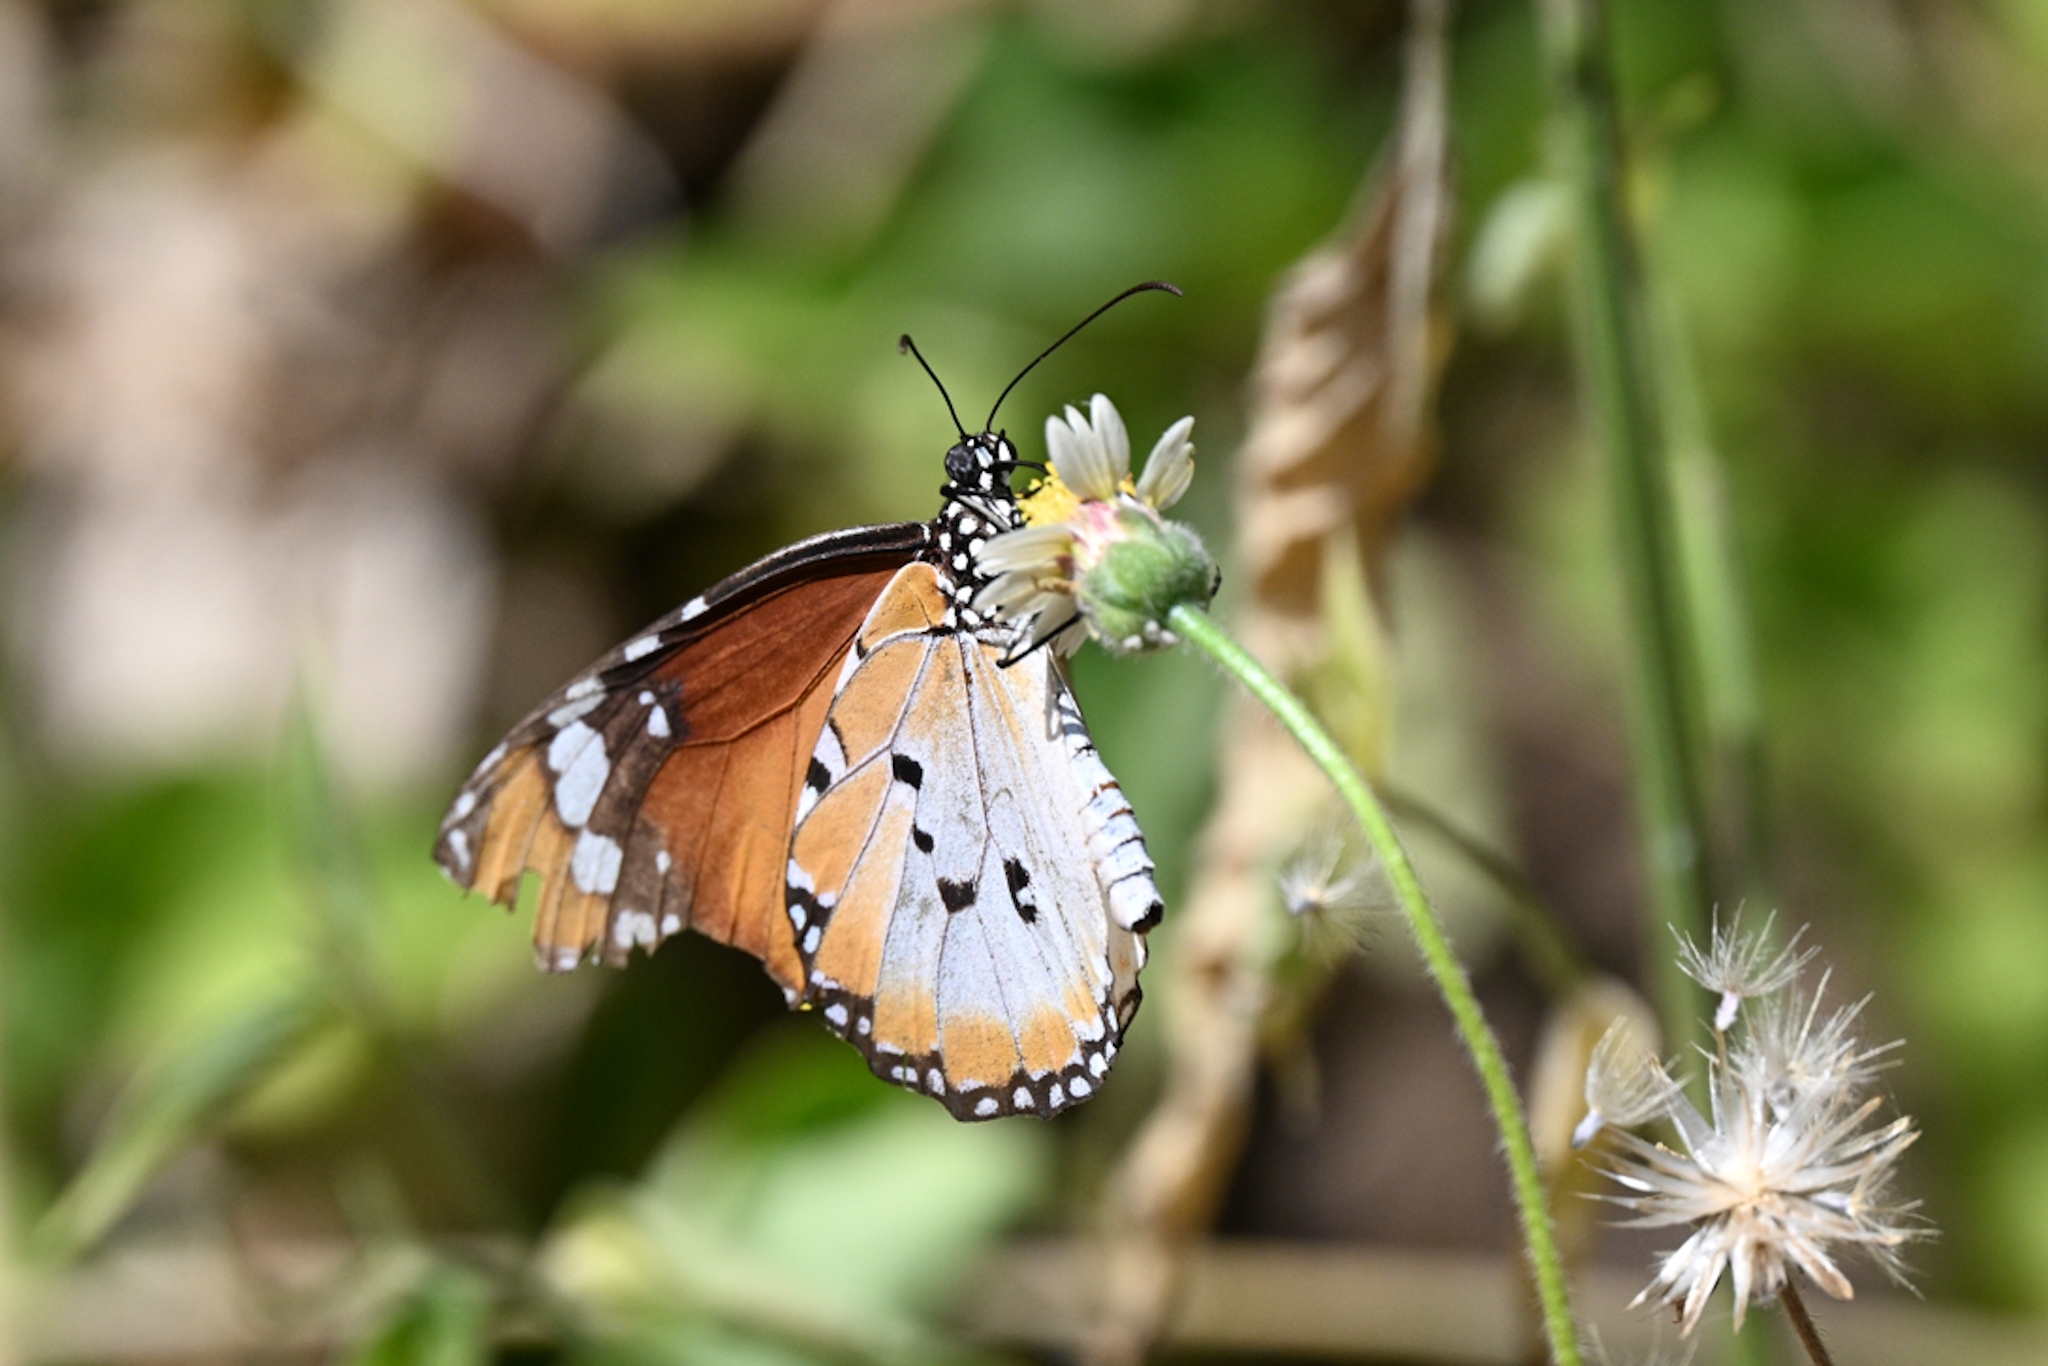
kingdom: Animalia
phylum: Arthropoda
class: Insecta
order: Lepidoptera
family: Nymphalidae
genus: Danaus
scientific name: Danaus chrysippus
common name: Plain tiger
